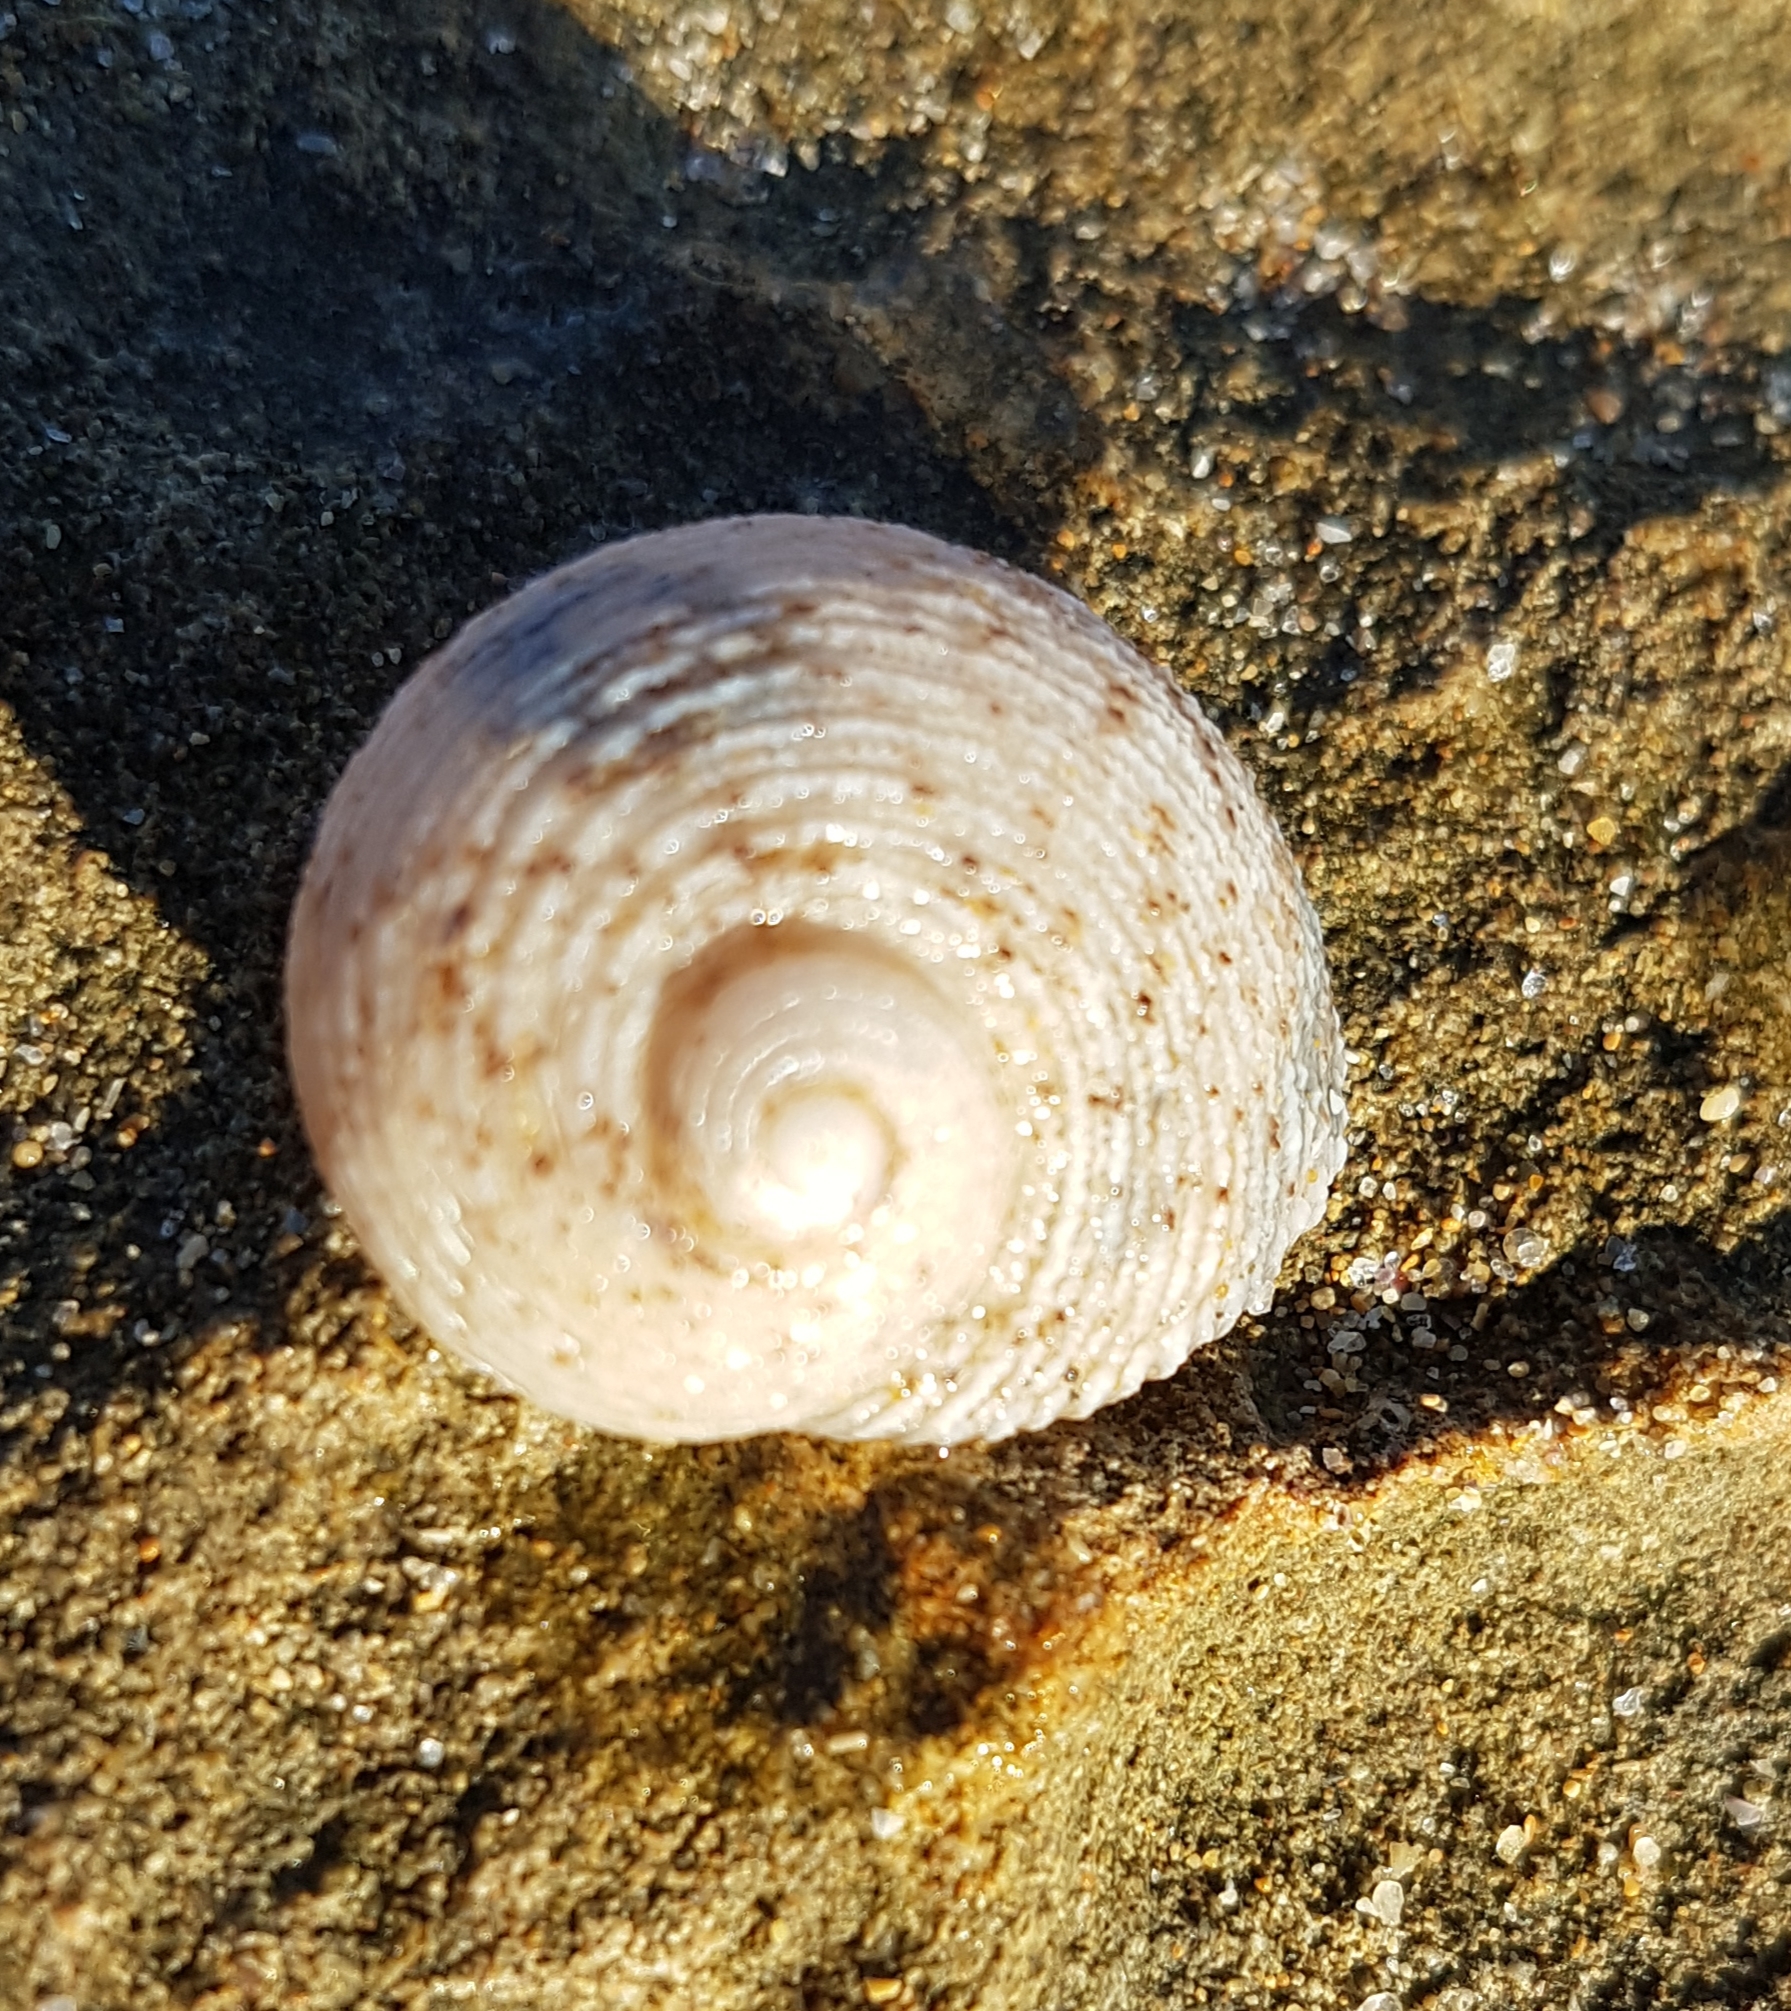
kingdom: Animalia
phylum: Mollusca
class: Gastropoda
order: Seguenziida
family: Chilodontaidae
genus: Granata
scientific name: Granata imbricata
